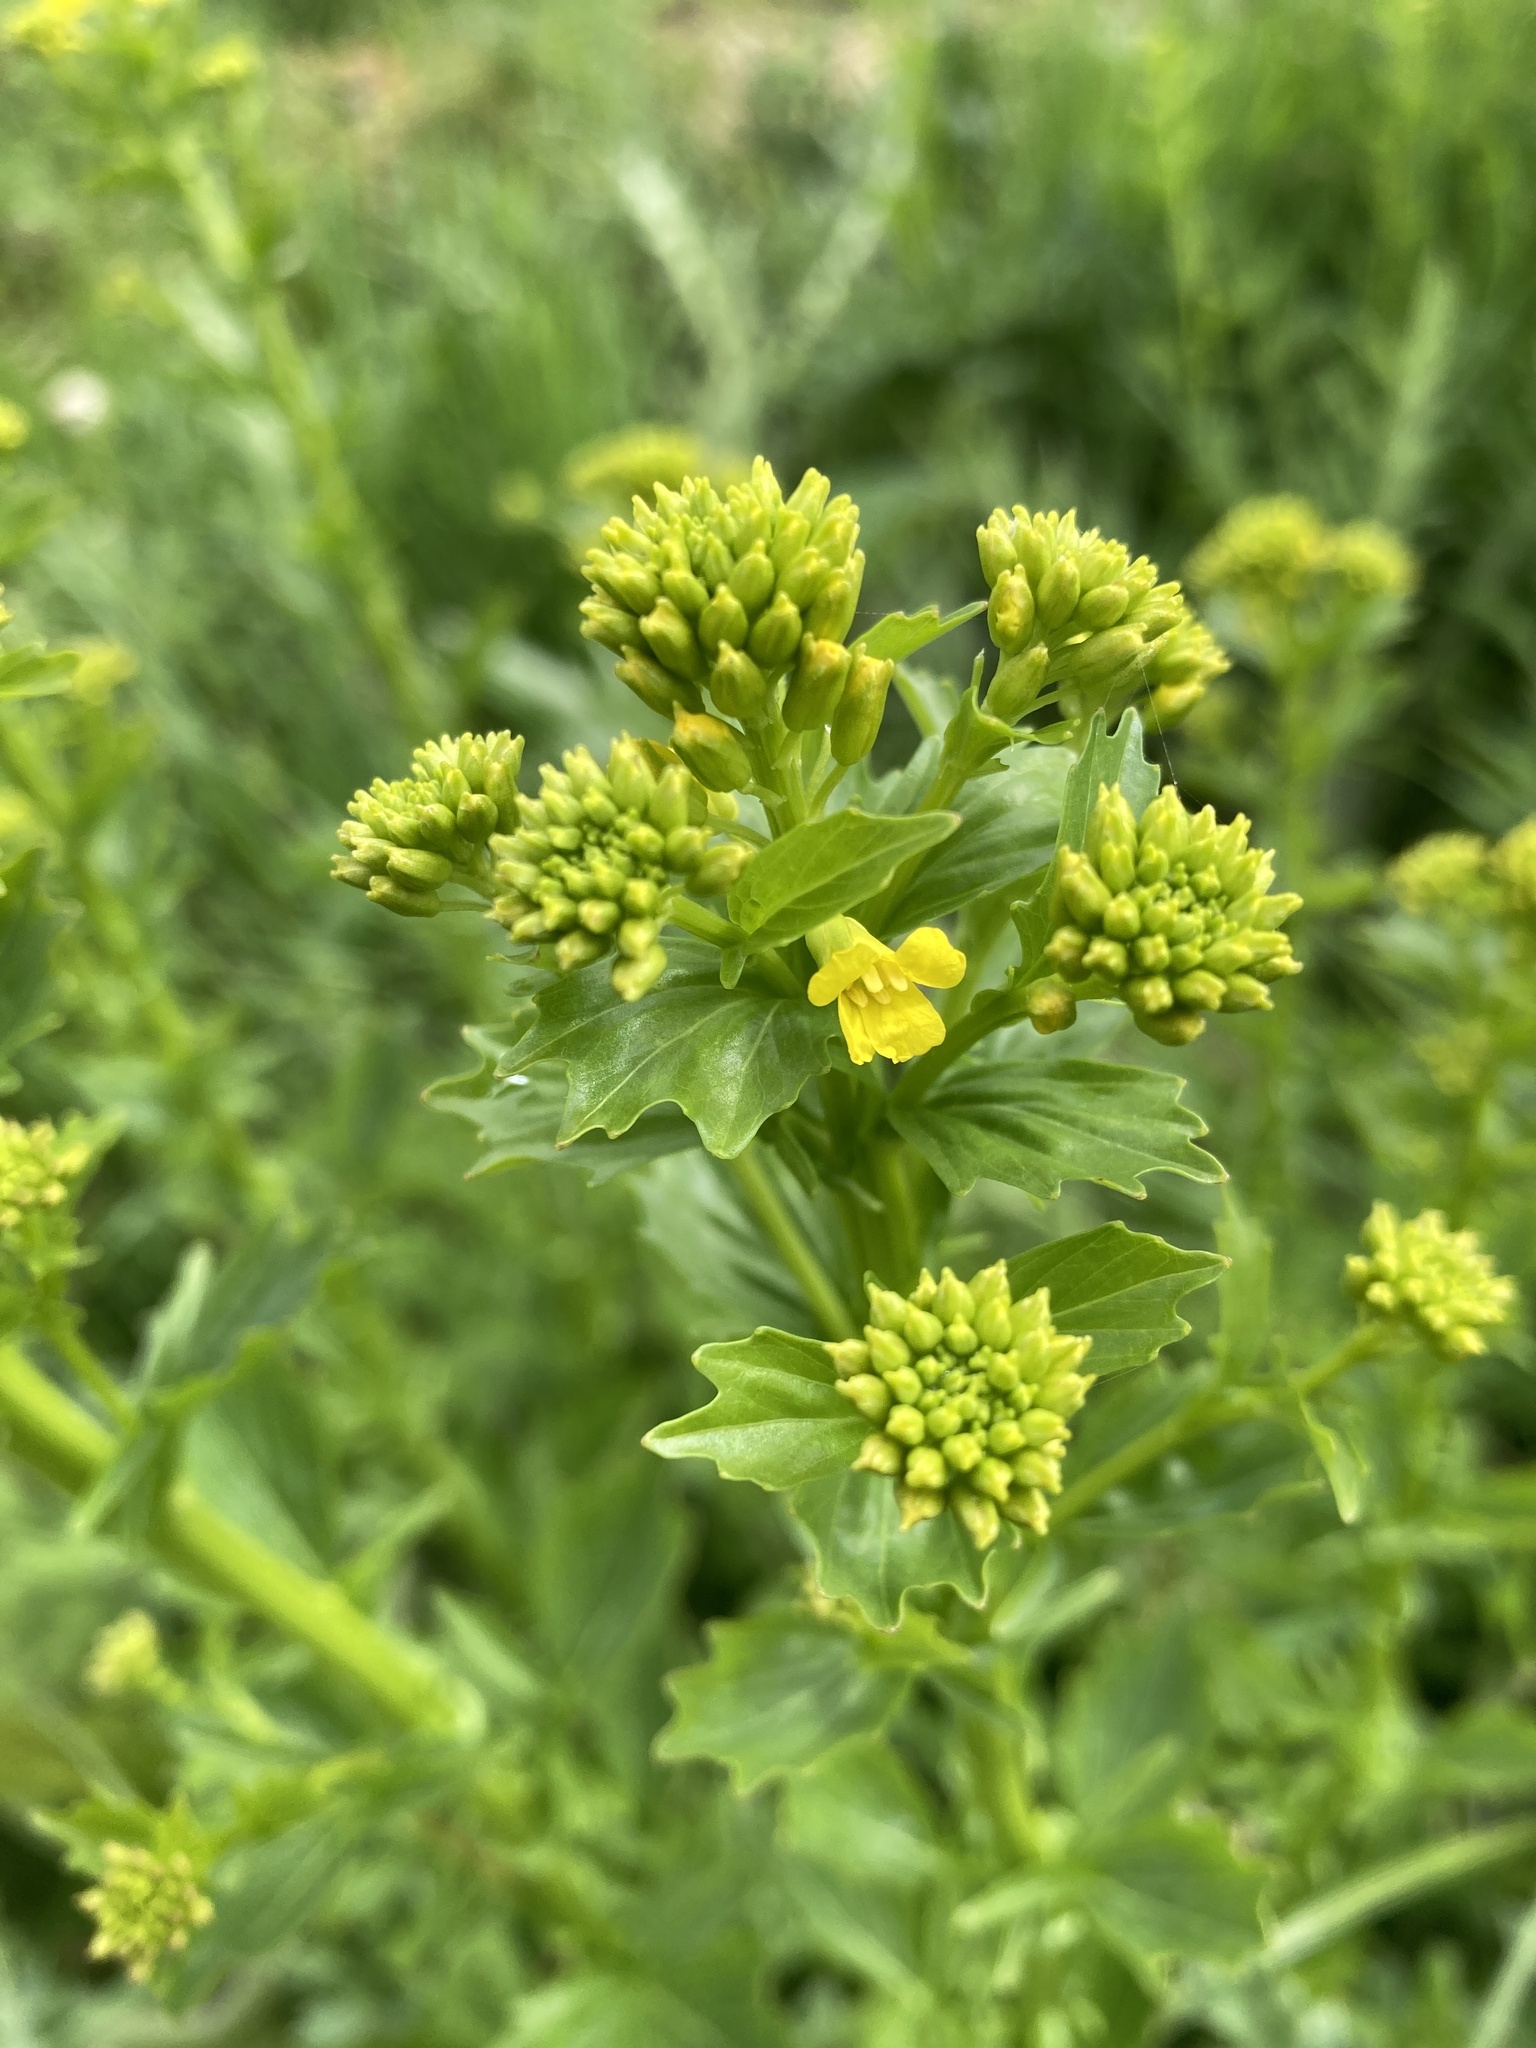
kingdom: Plantae
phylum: Tracheophyta
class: Magnoliopsida
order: Brassicales
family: Brassicaceae
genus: Barbarea
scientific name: Barbarea vulgaris
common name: Cressy-greens
